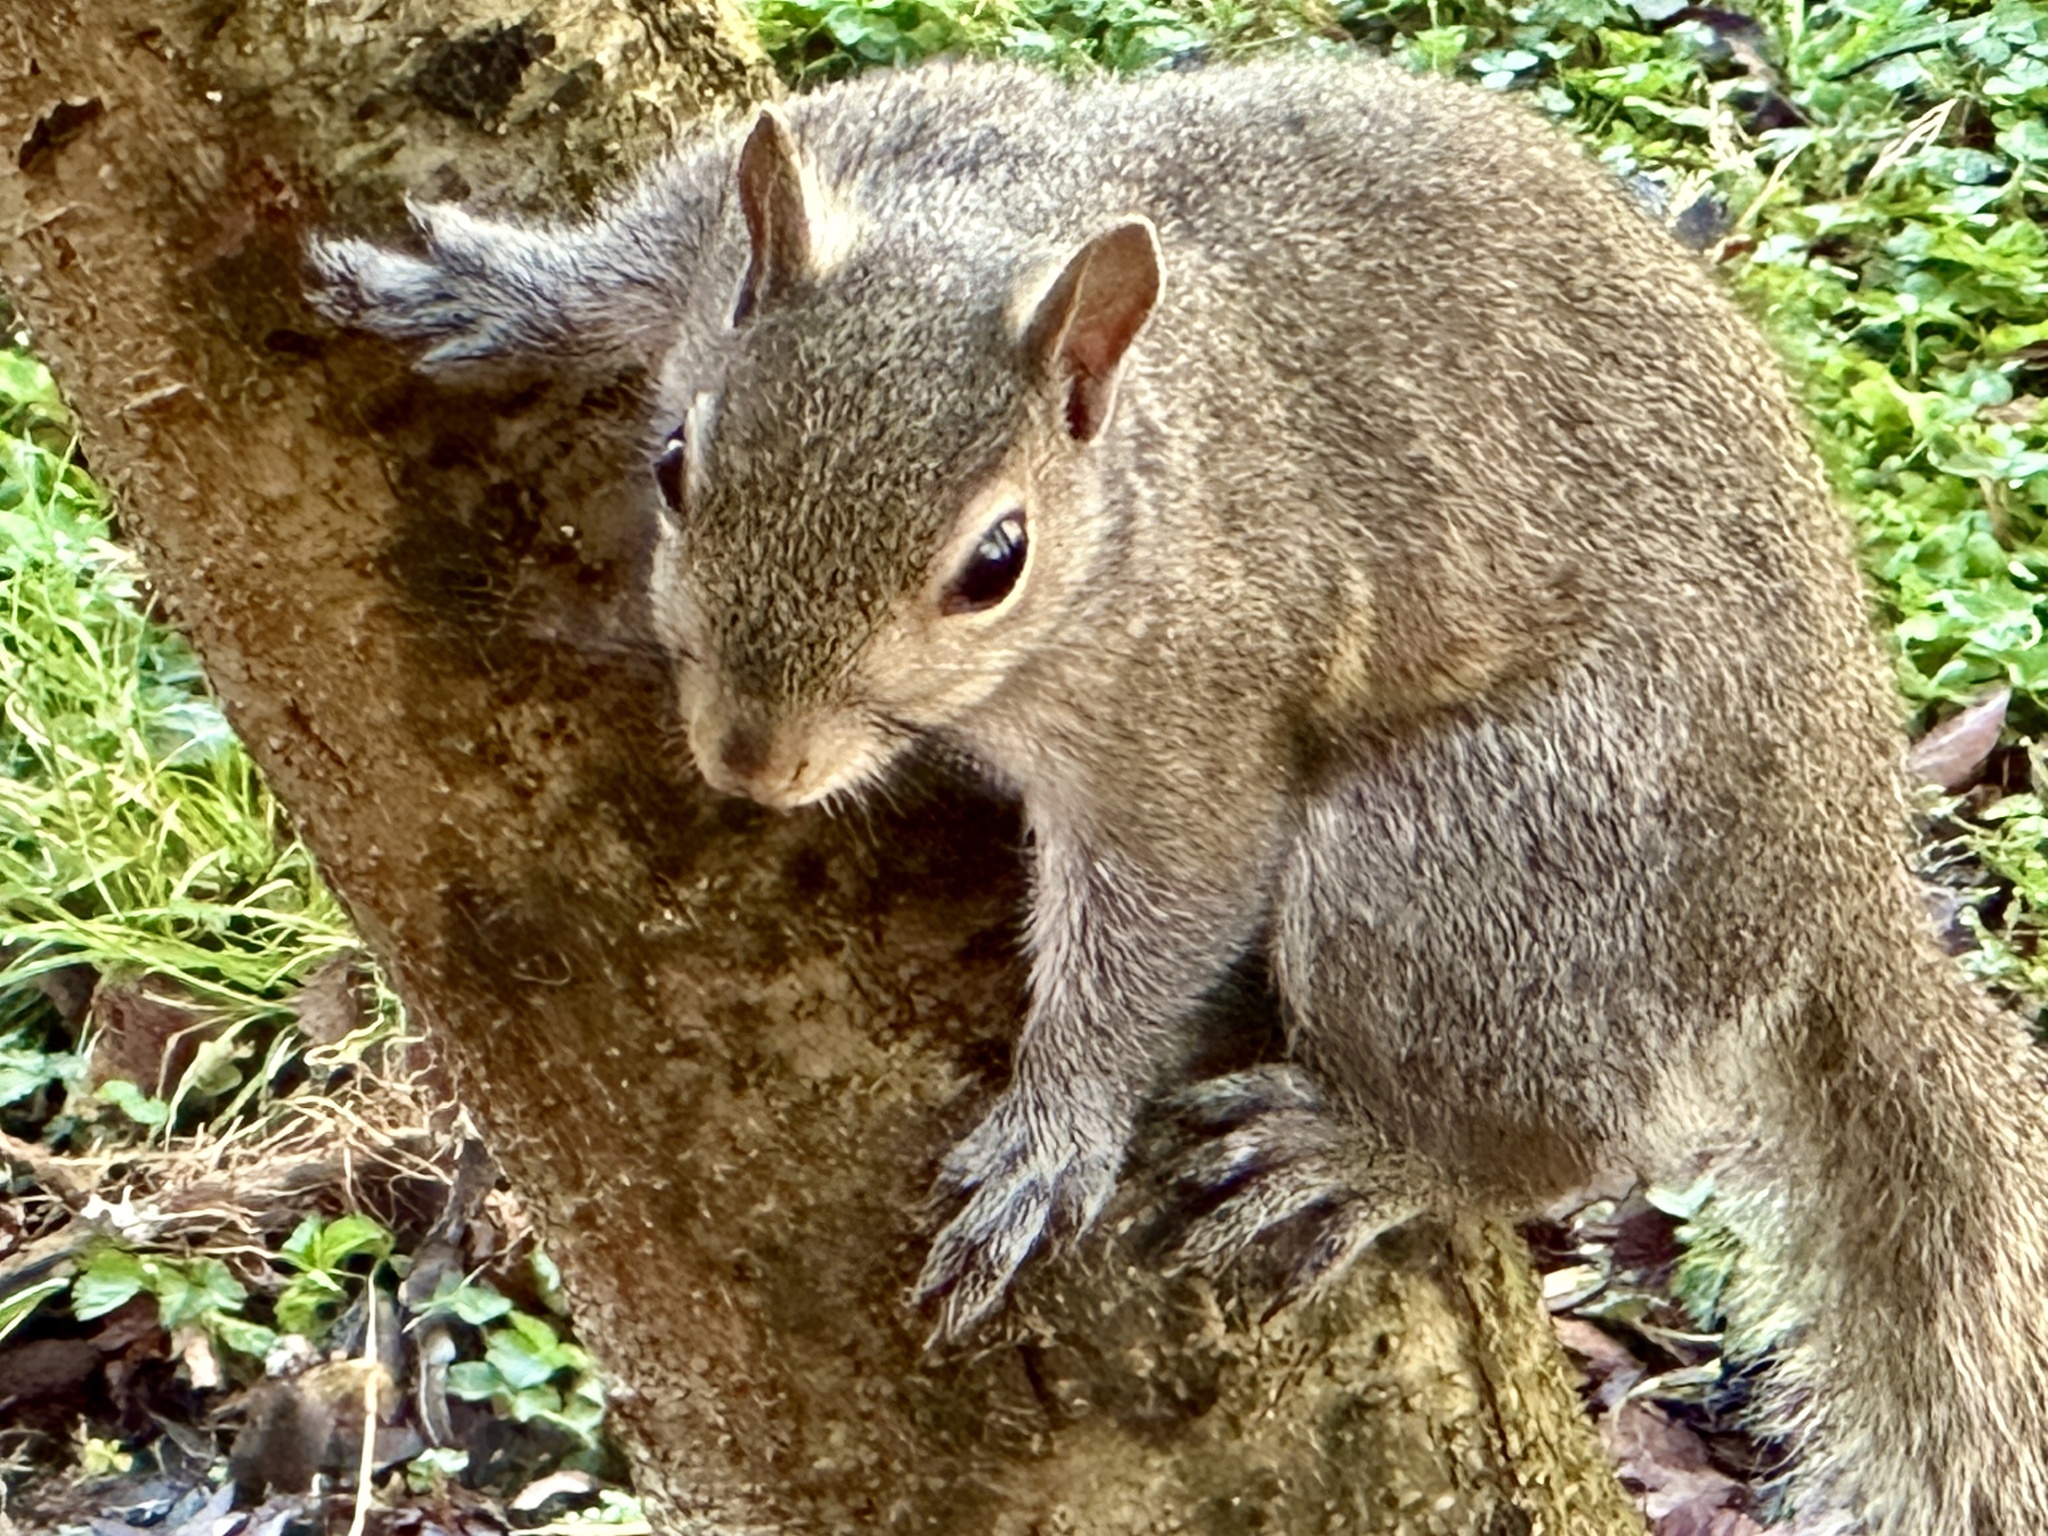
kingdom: Animalia
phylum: Chordata
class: Mammalia
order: Rodentia
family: Sciuridae
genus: Sciurus
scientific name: Sciurus carolinensis
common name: Eastern gray squirrel
